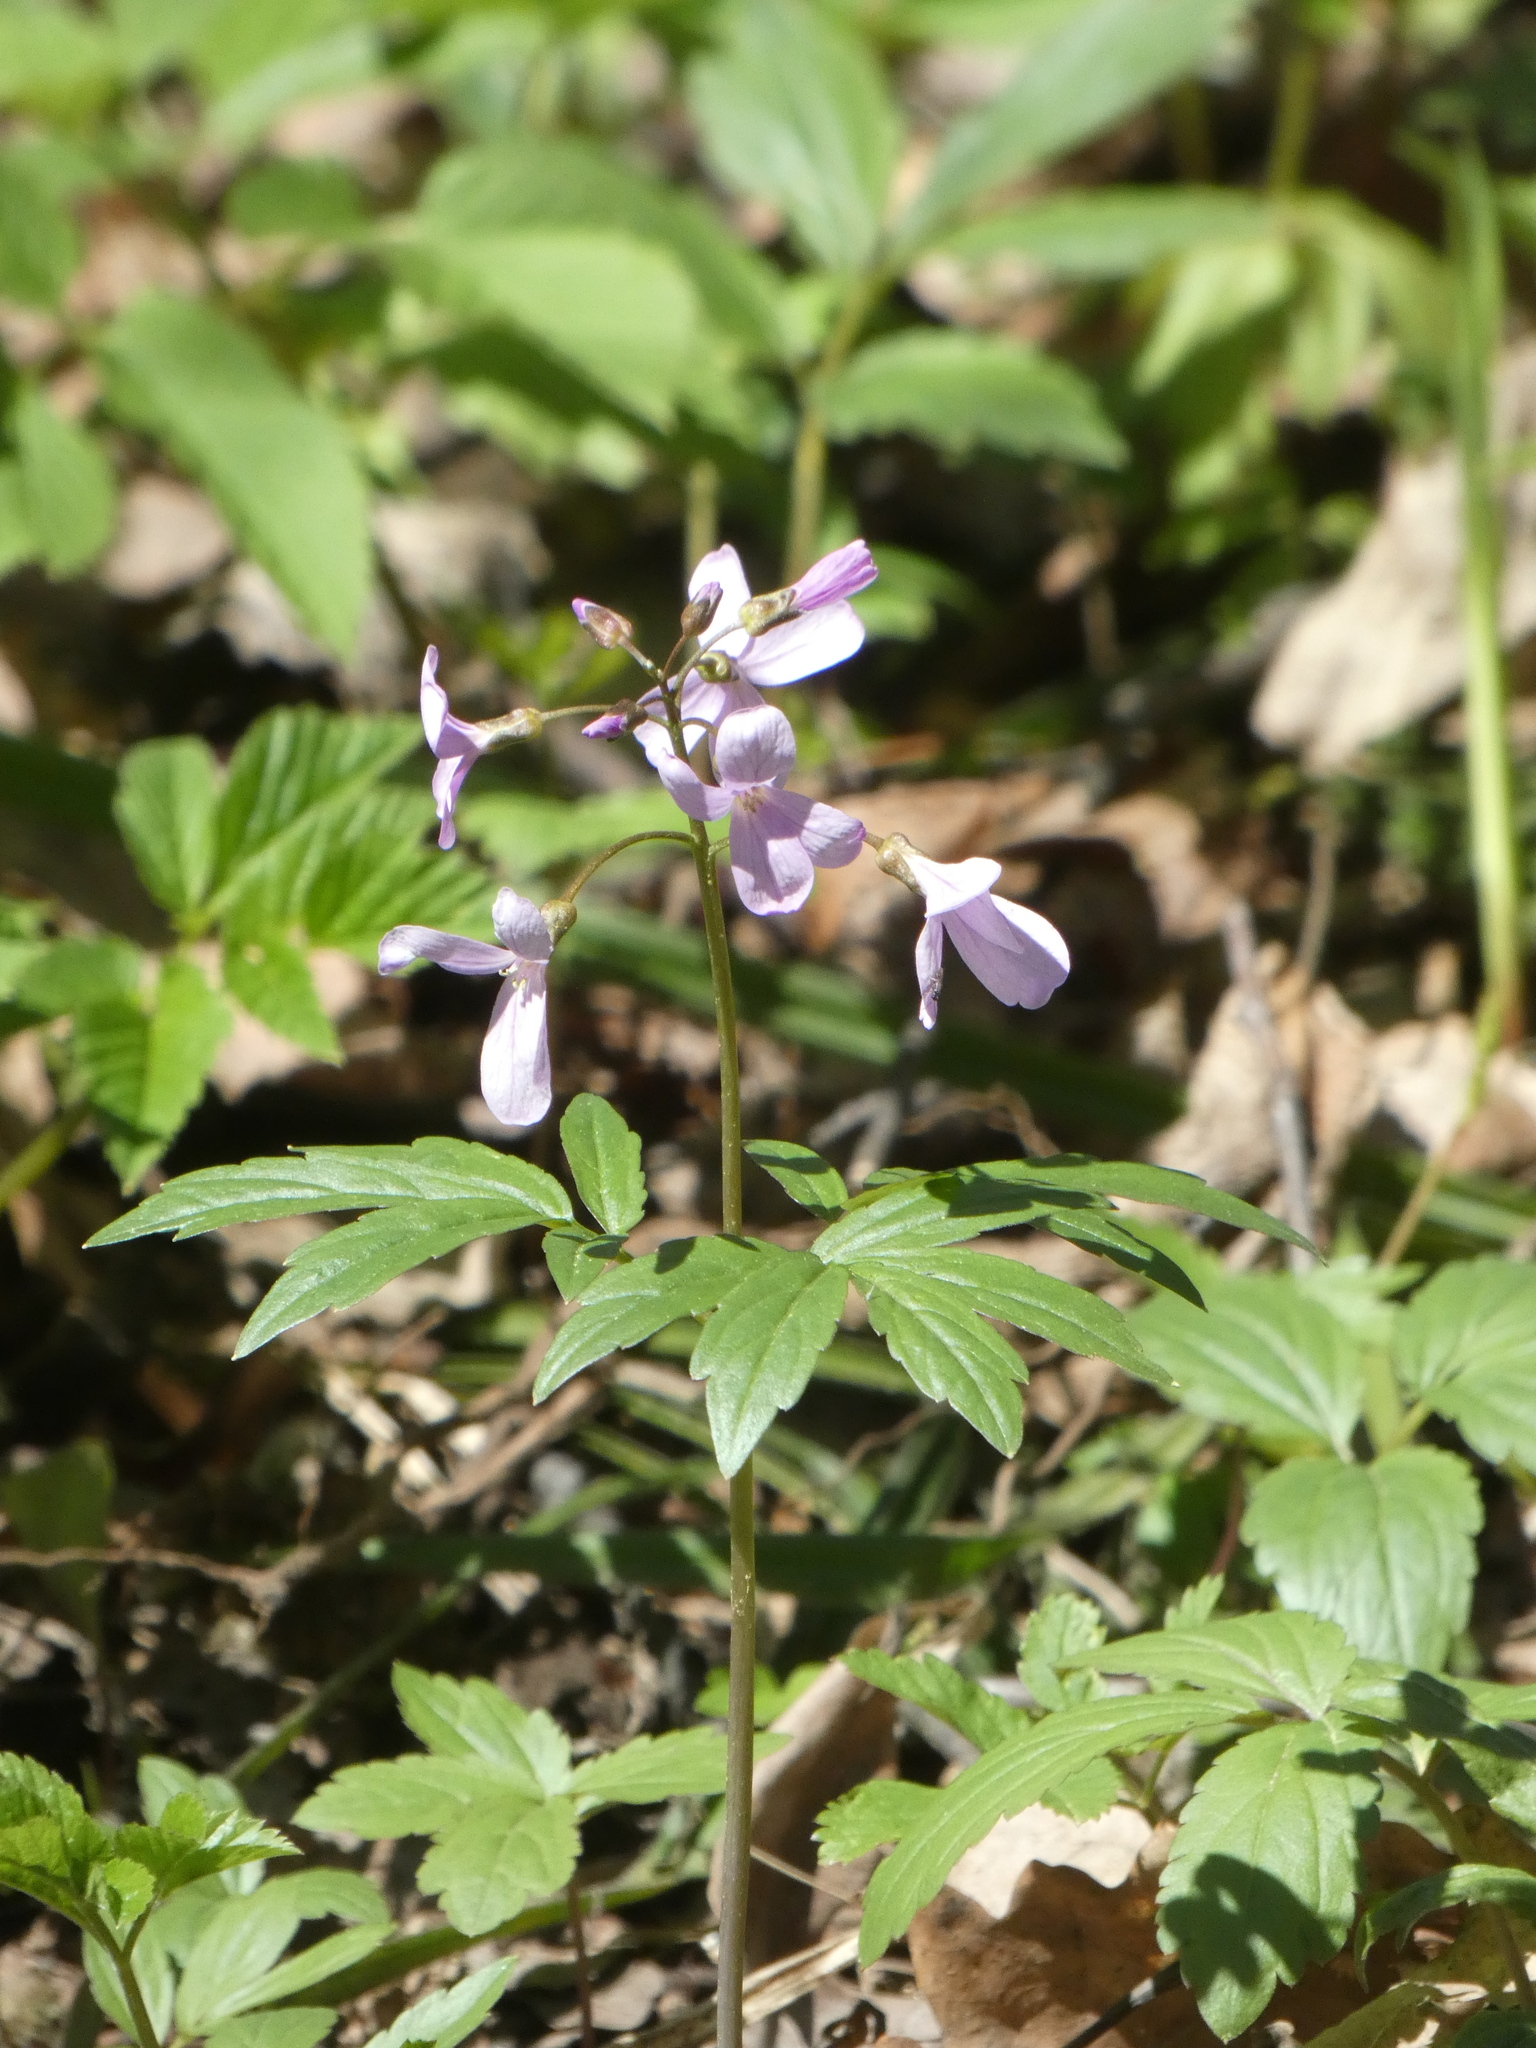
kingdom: Plantae
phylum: Tracheophyta
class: Magnoliopsida
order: Brassicales
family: Brassicaceae
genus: Cardamine
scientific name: Cardamine quinquefolia
